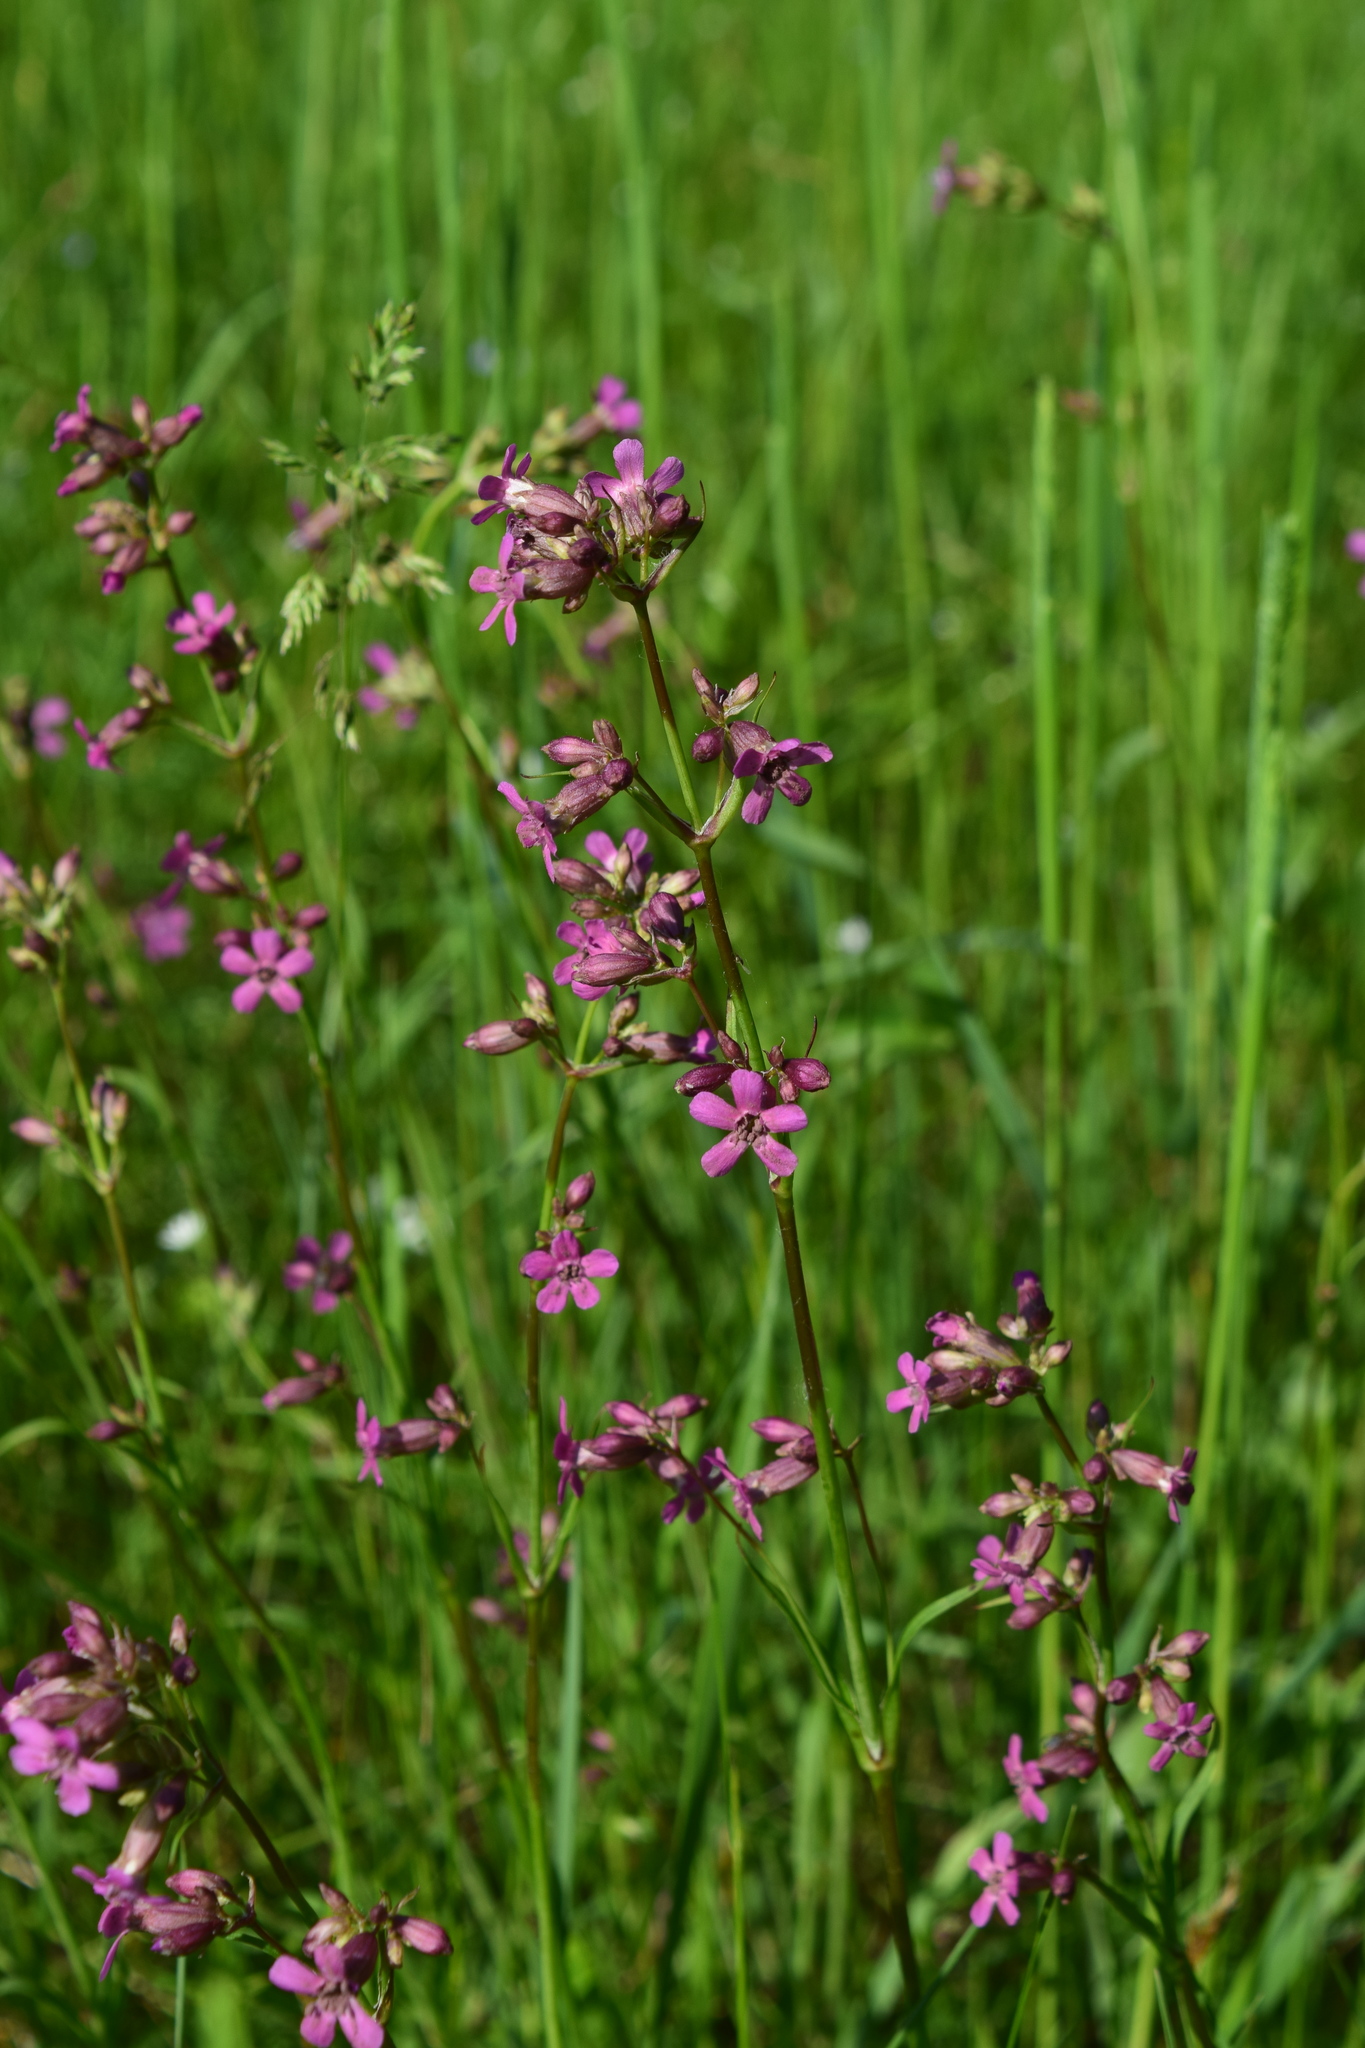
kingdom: Plantae
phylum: Tracheophyta
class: Magnoliopsida
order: Caryophyllales
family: Caryophyllaceae
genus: Viscaria
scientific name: Viscaria vulgaris
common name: Clammy campion
